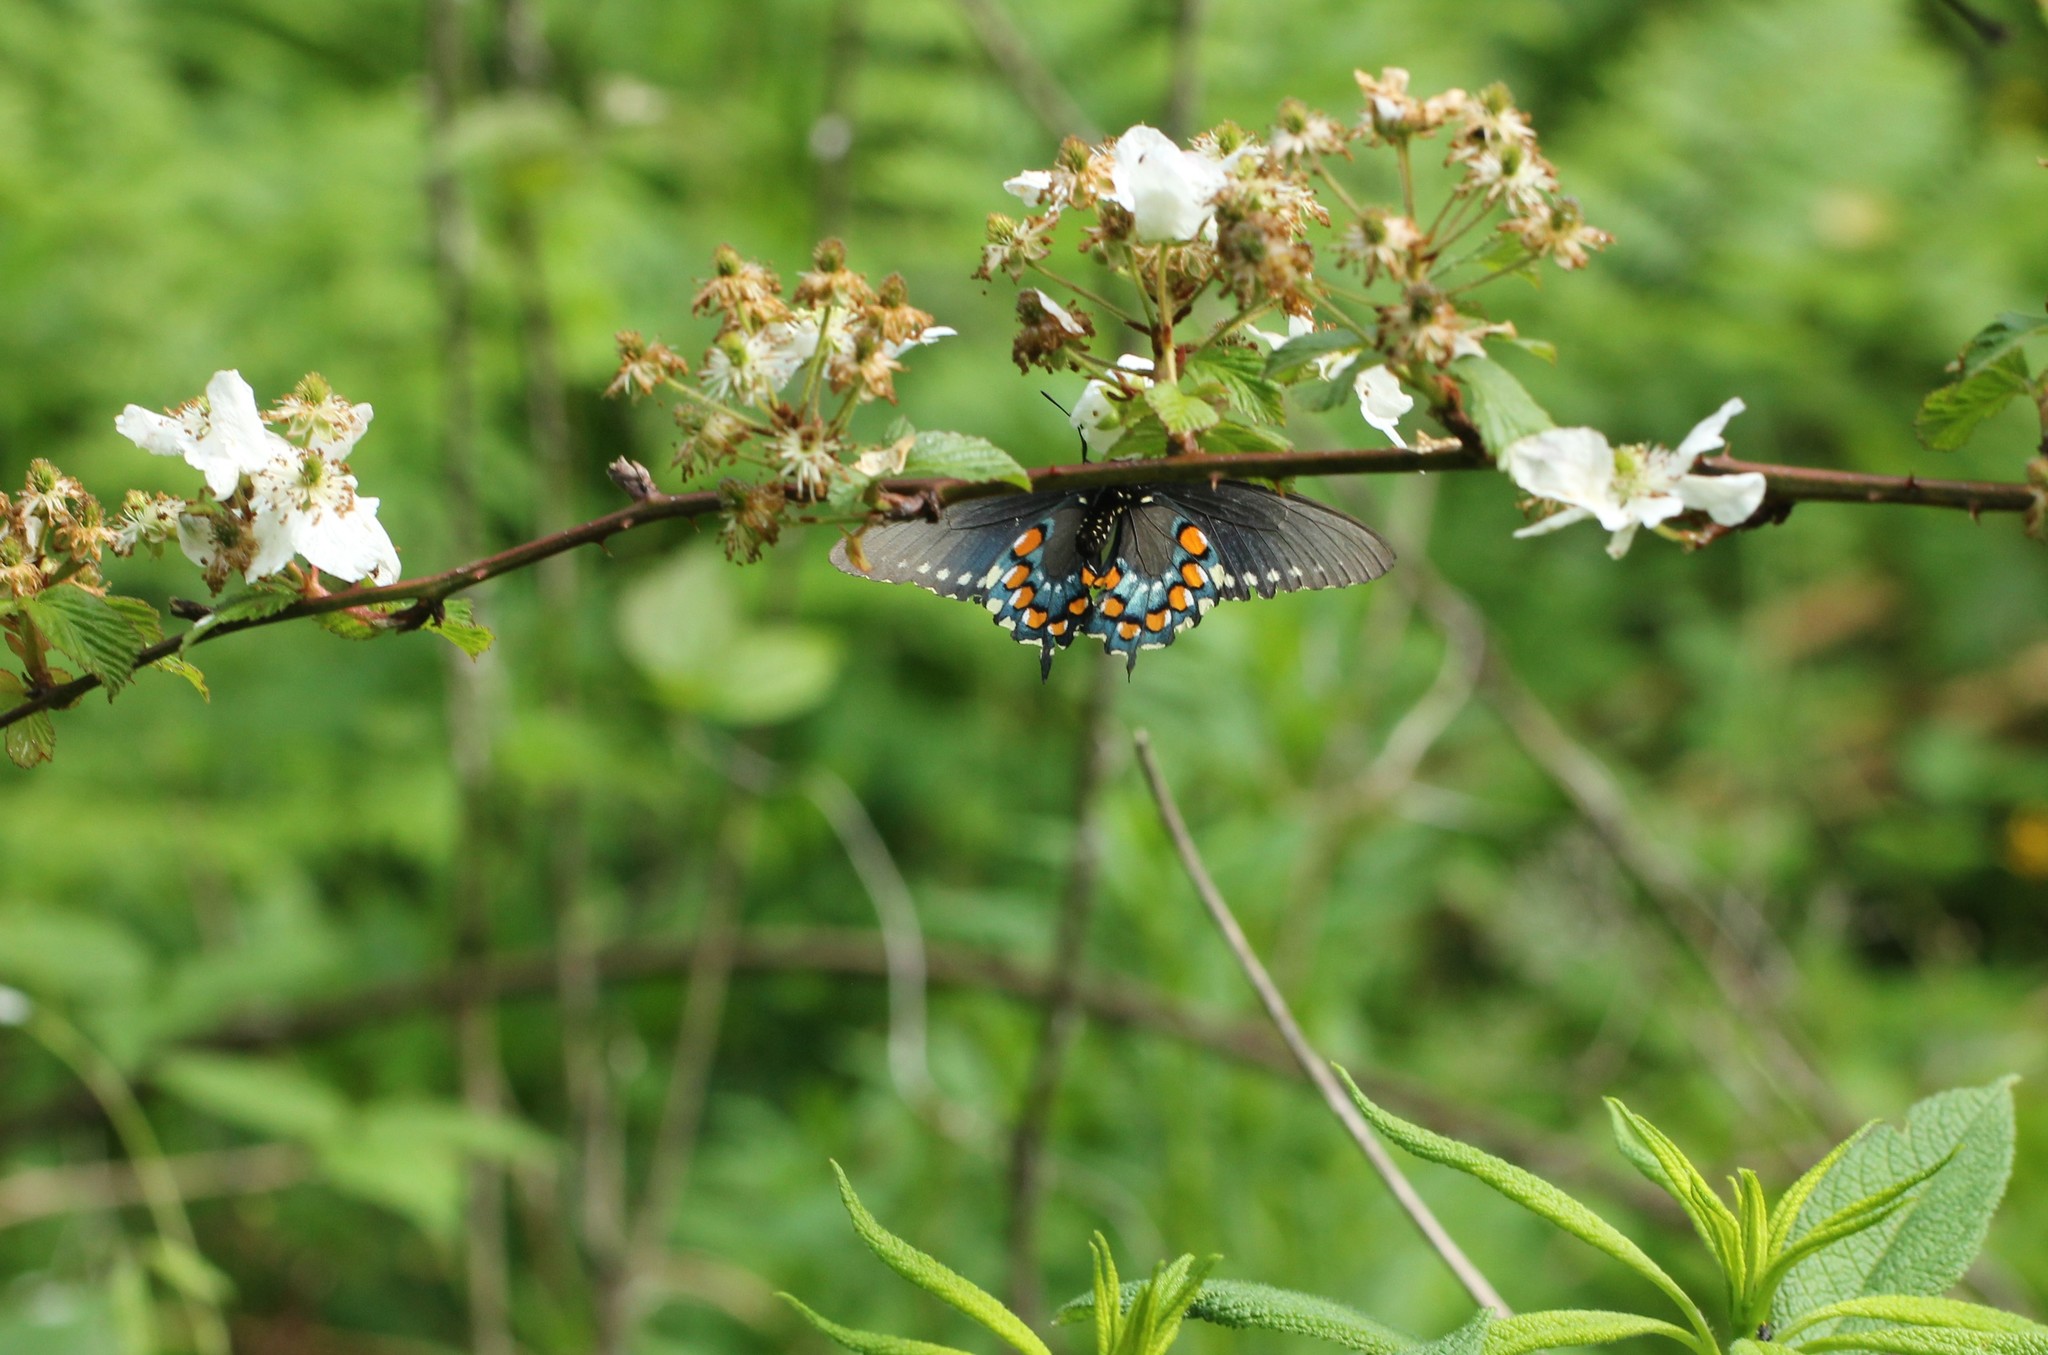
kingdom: Animalia
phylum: Arthropoda
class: Insecta
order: Lepidoptera
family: Papilionidae
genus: Battus
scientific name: Battus philenor
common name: Pipevine swallowtail
